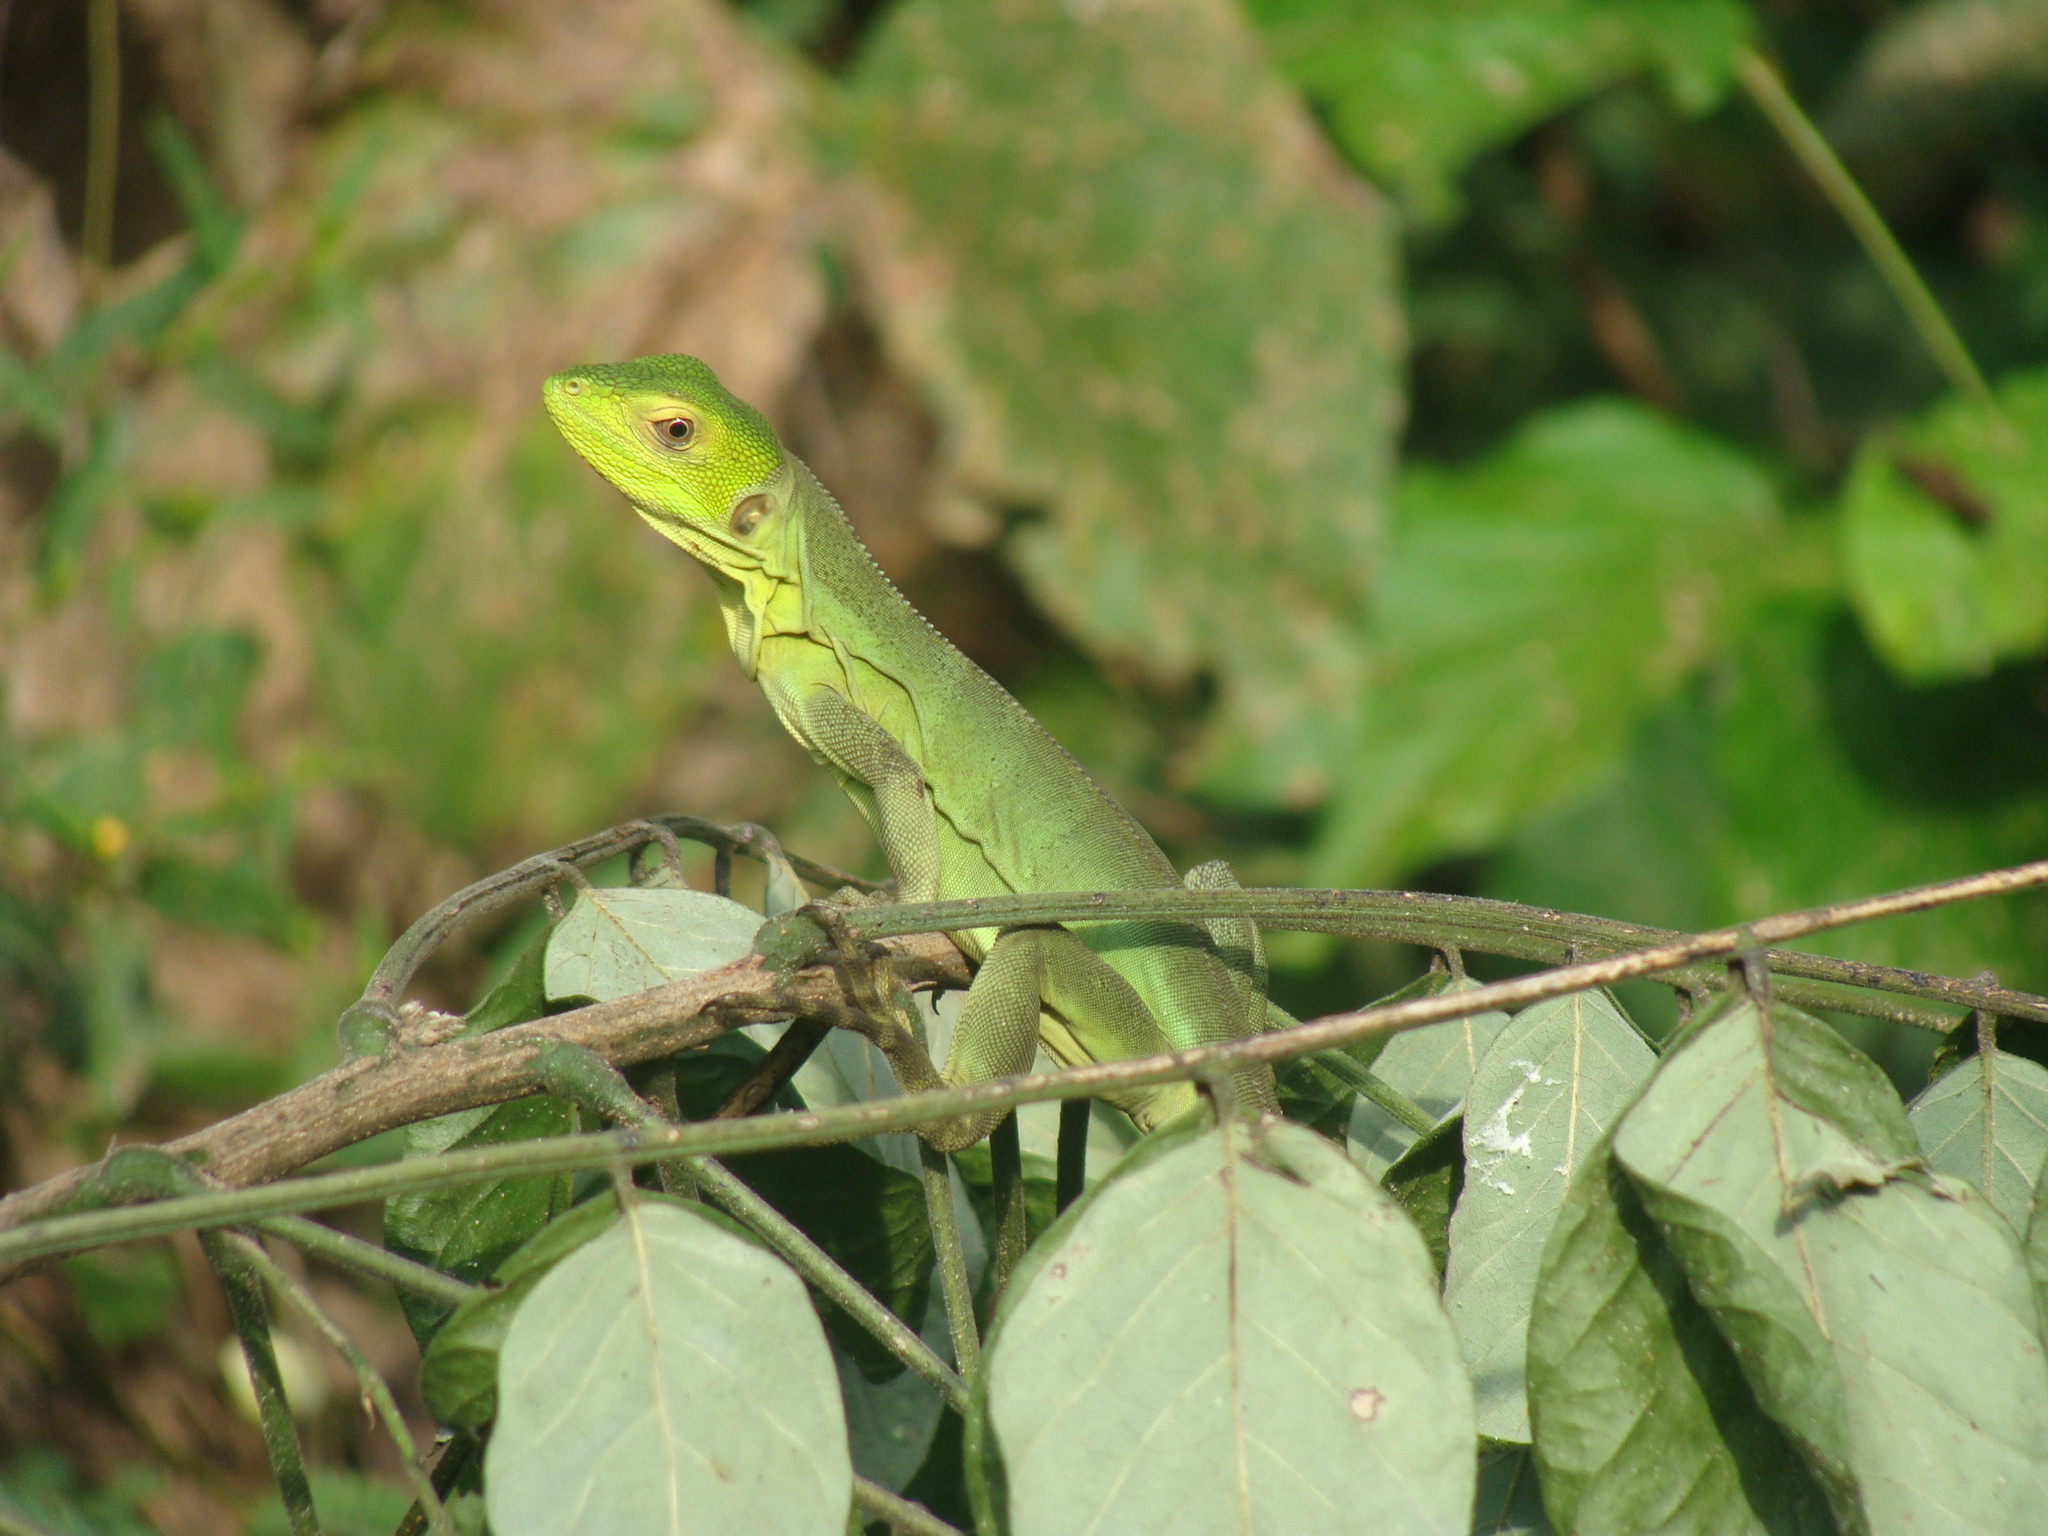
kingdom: Animalia
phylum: Chordata
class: Squamata
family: Iguanidae
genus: Ctenosaura
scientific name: Ctenosaura pectinata
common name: Guerreran spiny-tailed iguana
